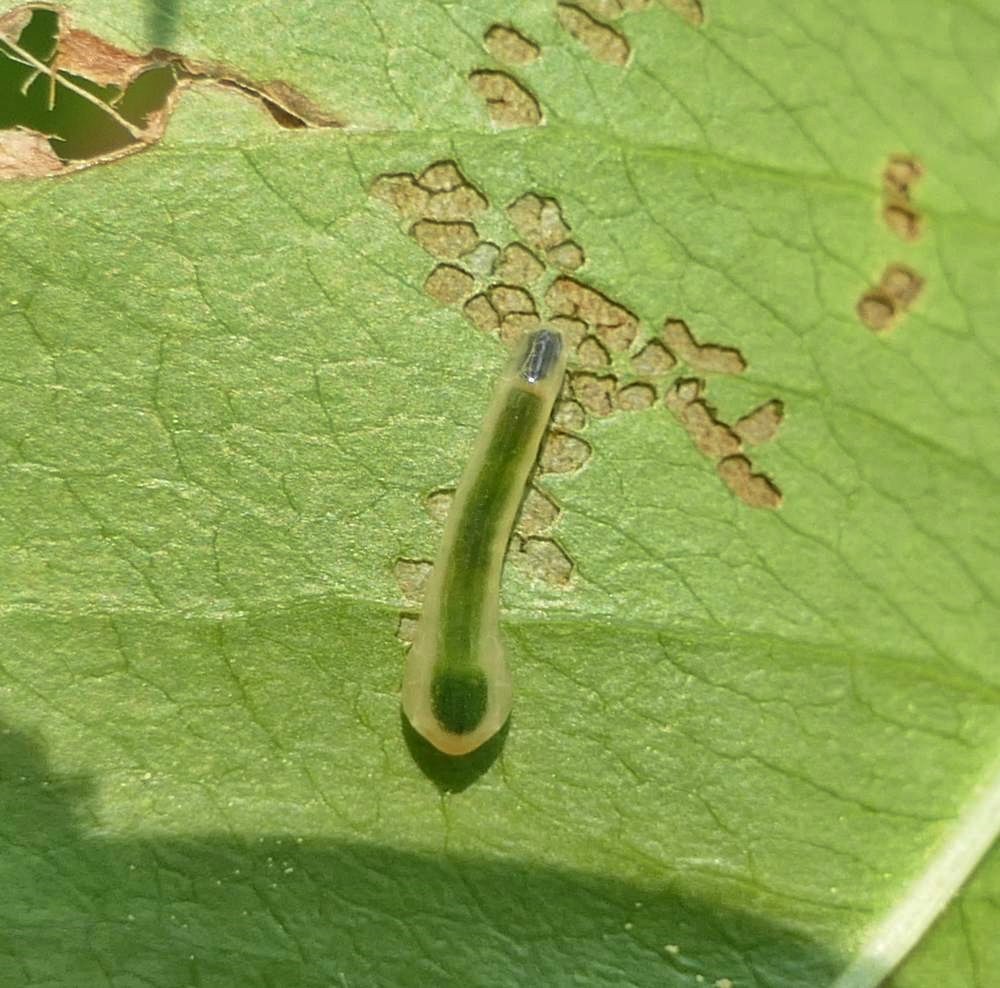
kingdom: Animalia
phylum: Arthropoda
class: Insecta
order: Hymenoptera
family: Tenthredinidae
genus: Caliroa
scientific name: Caliroa
